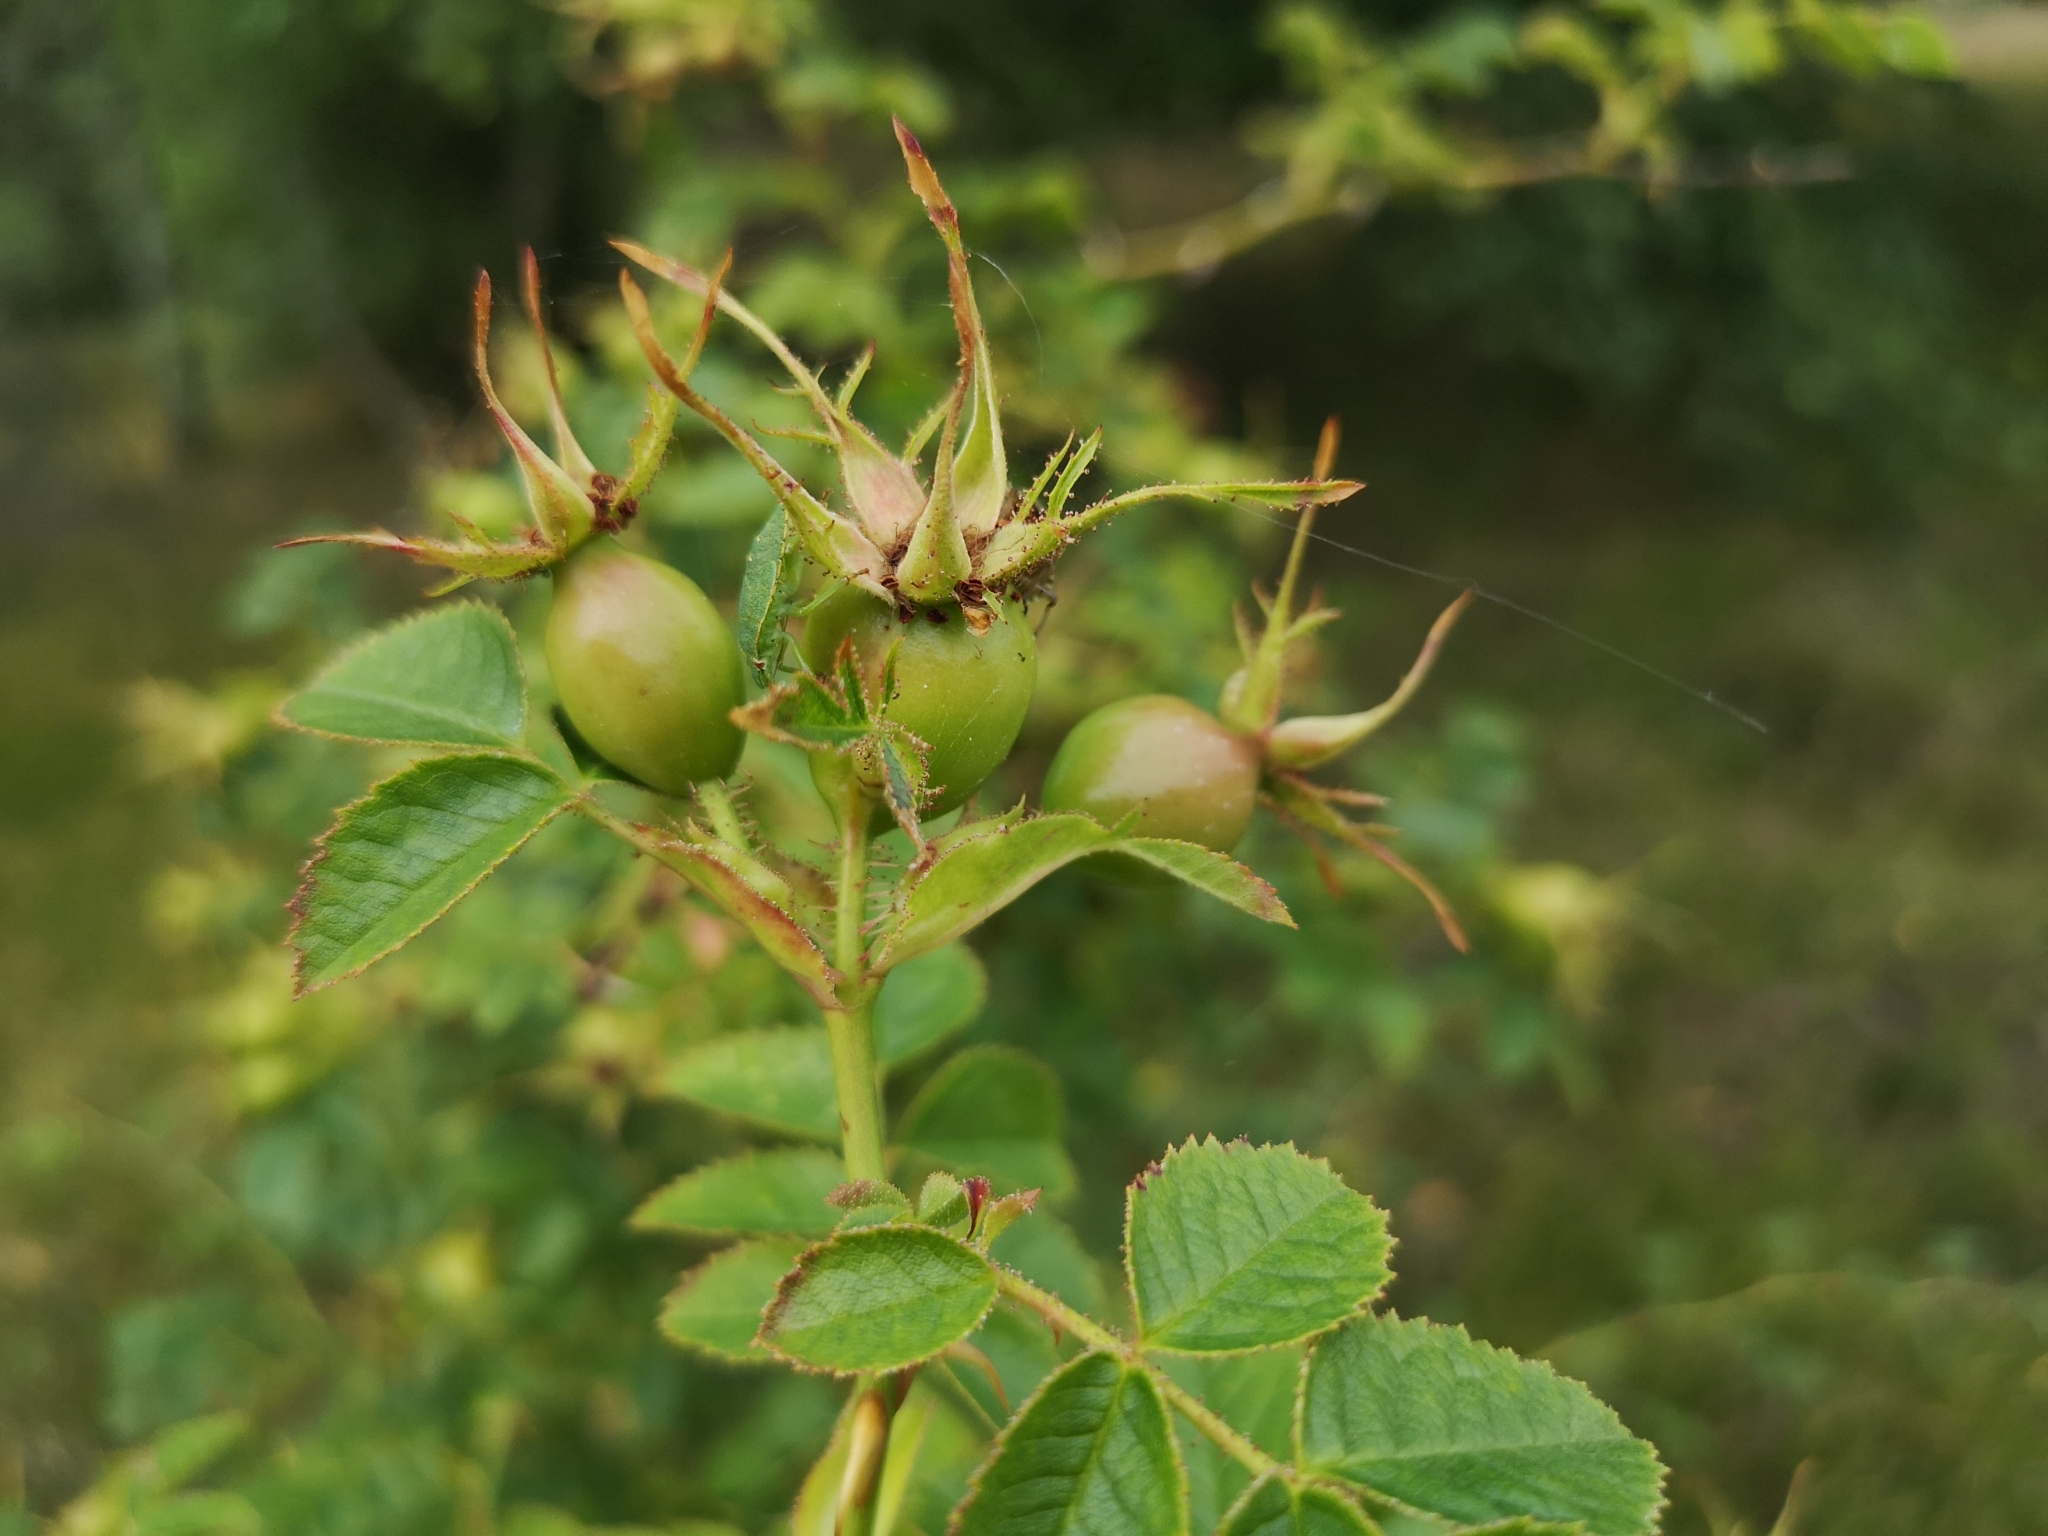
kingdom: Plantae
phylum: Tracheophyta
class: Magnoliopsida
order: Rosales
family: Rosaceae
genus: Rosa
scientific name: Rosa rubiginosa
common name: Sweet-briar
